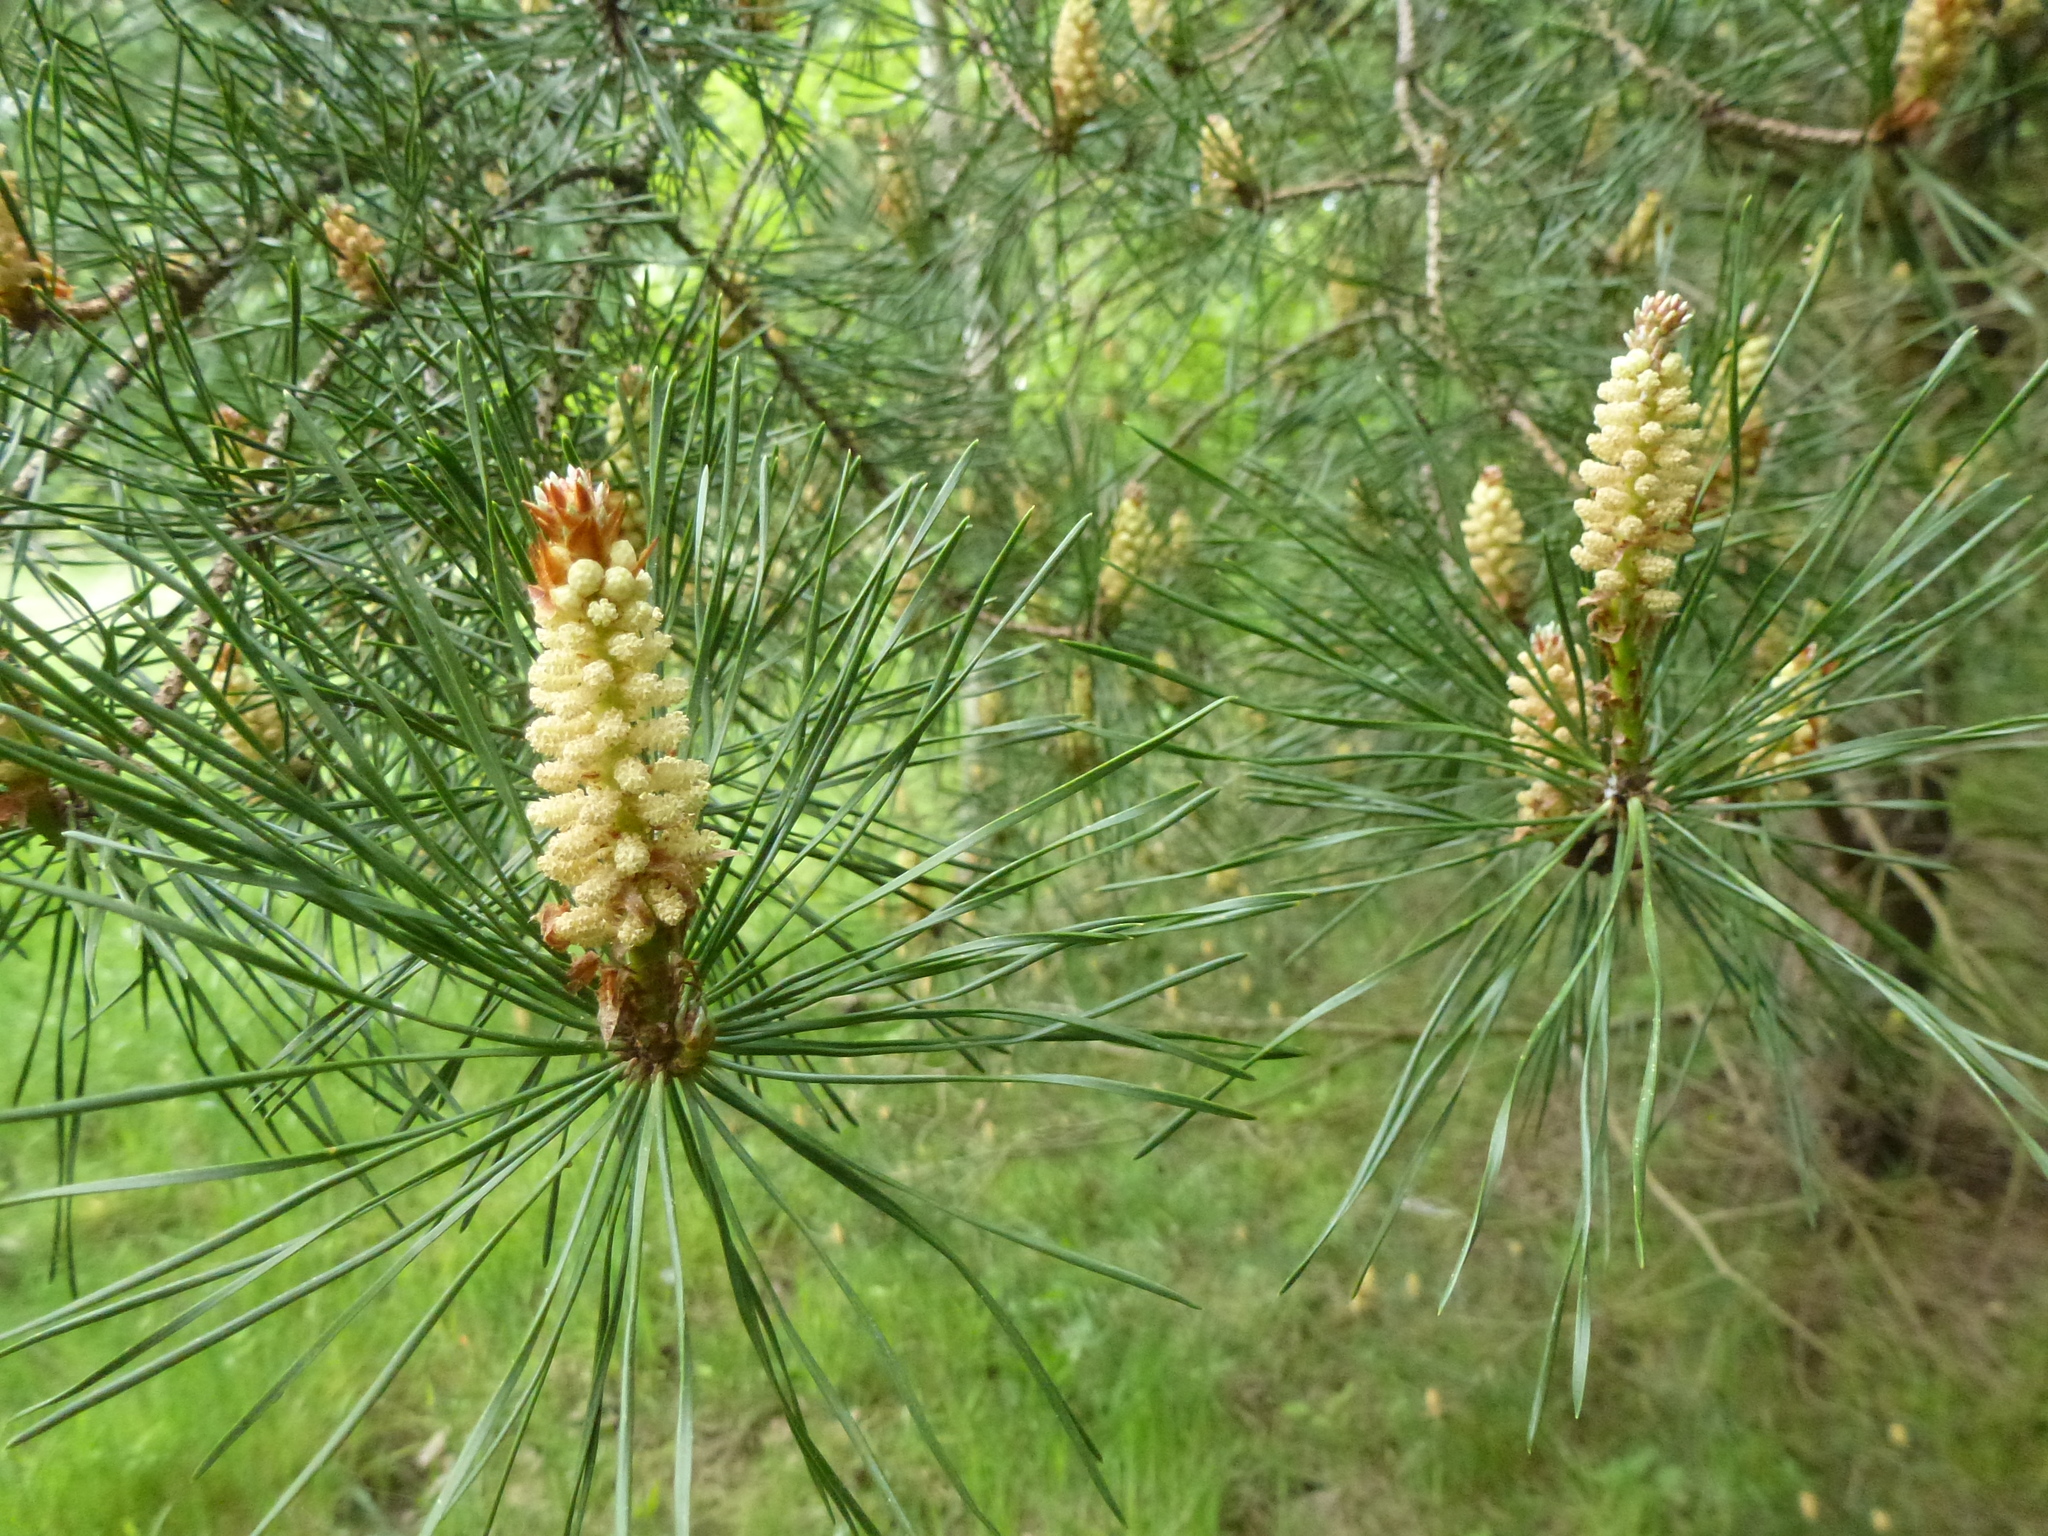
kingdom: Plantae
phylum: Tracheophyta
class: Pinopsida
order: Pinales
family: Pinaceae
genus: Pinus
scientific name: Pinus sylvestris
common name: Scots pine
